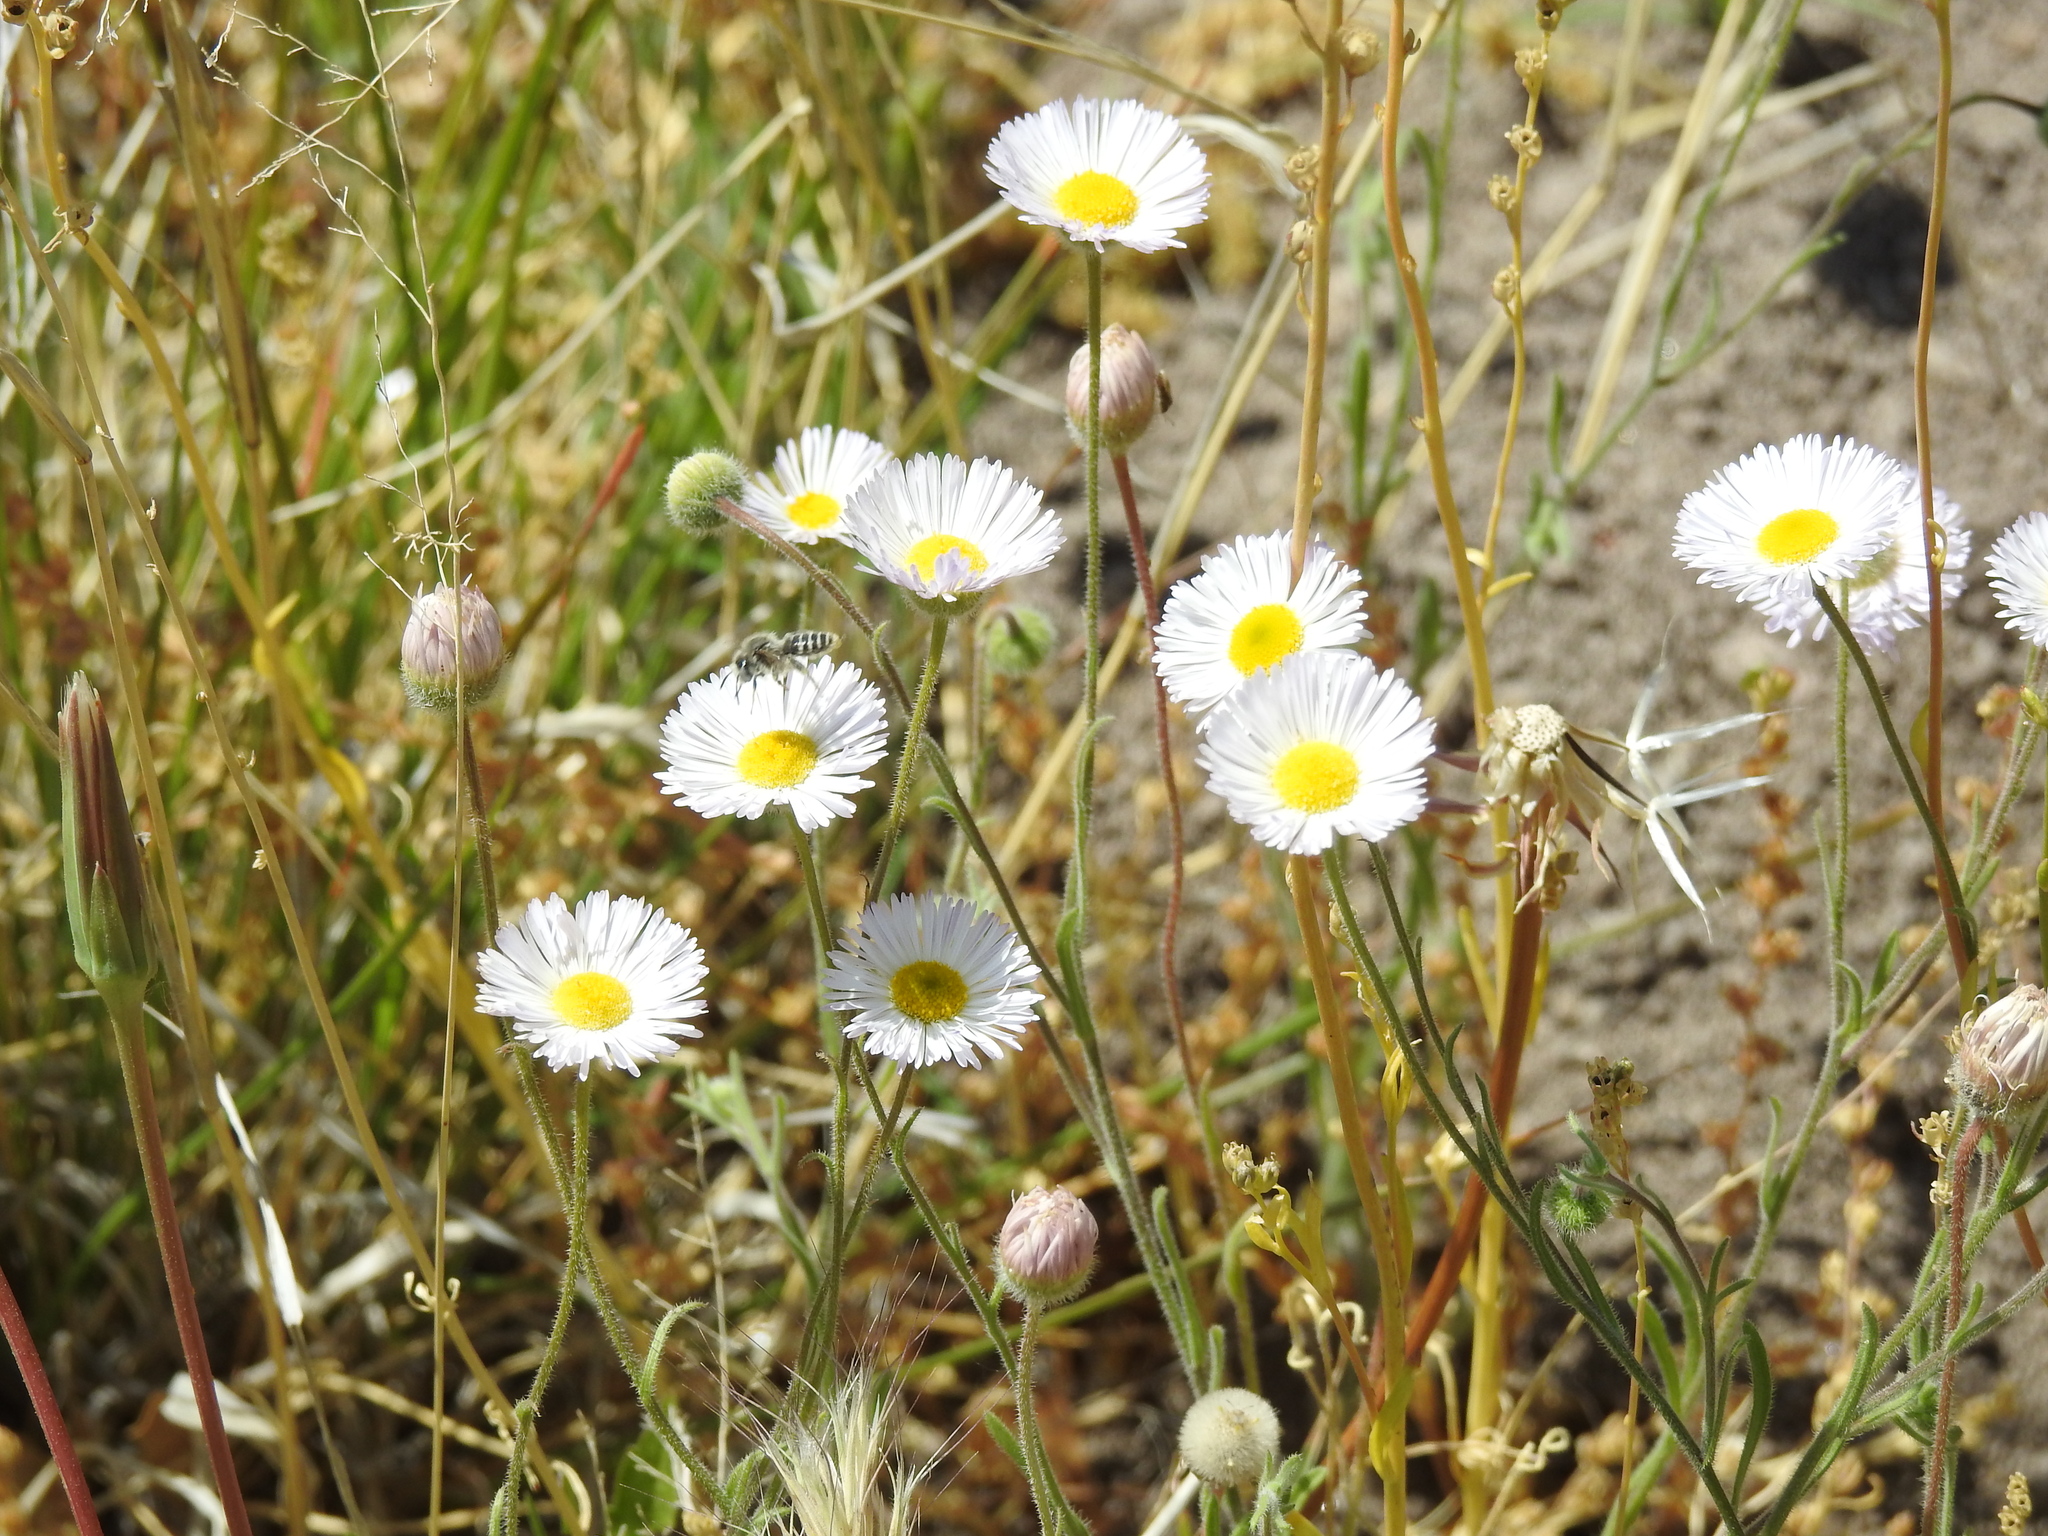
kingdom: Animalia
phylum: Arthropoda
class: Insecta
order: Hymenoptera
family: Apidae
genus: Diadasia
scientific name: Diadasia
